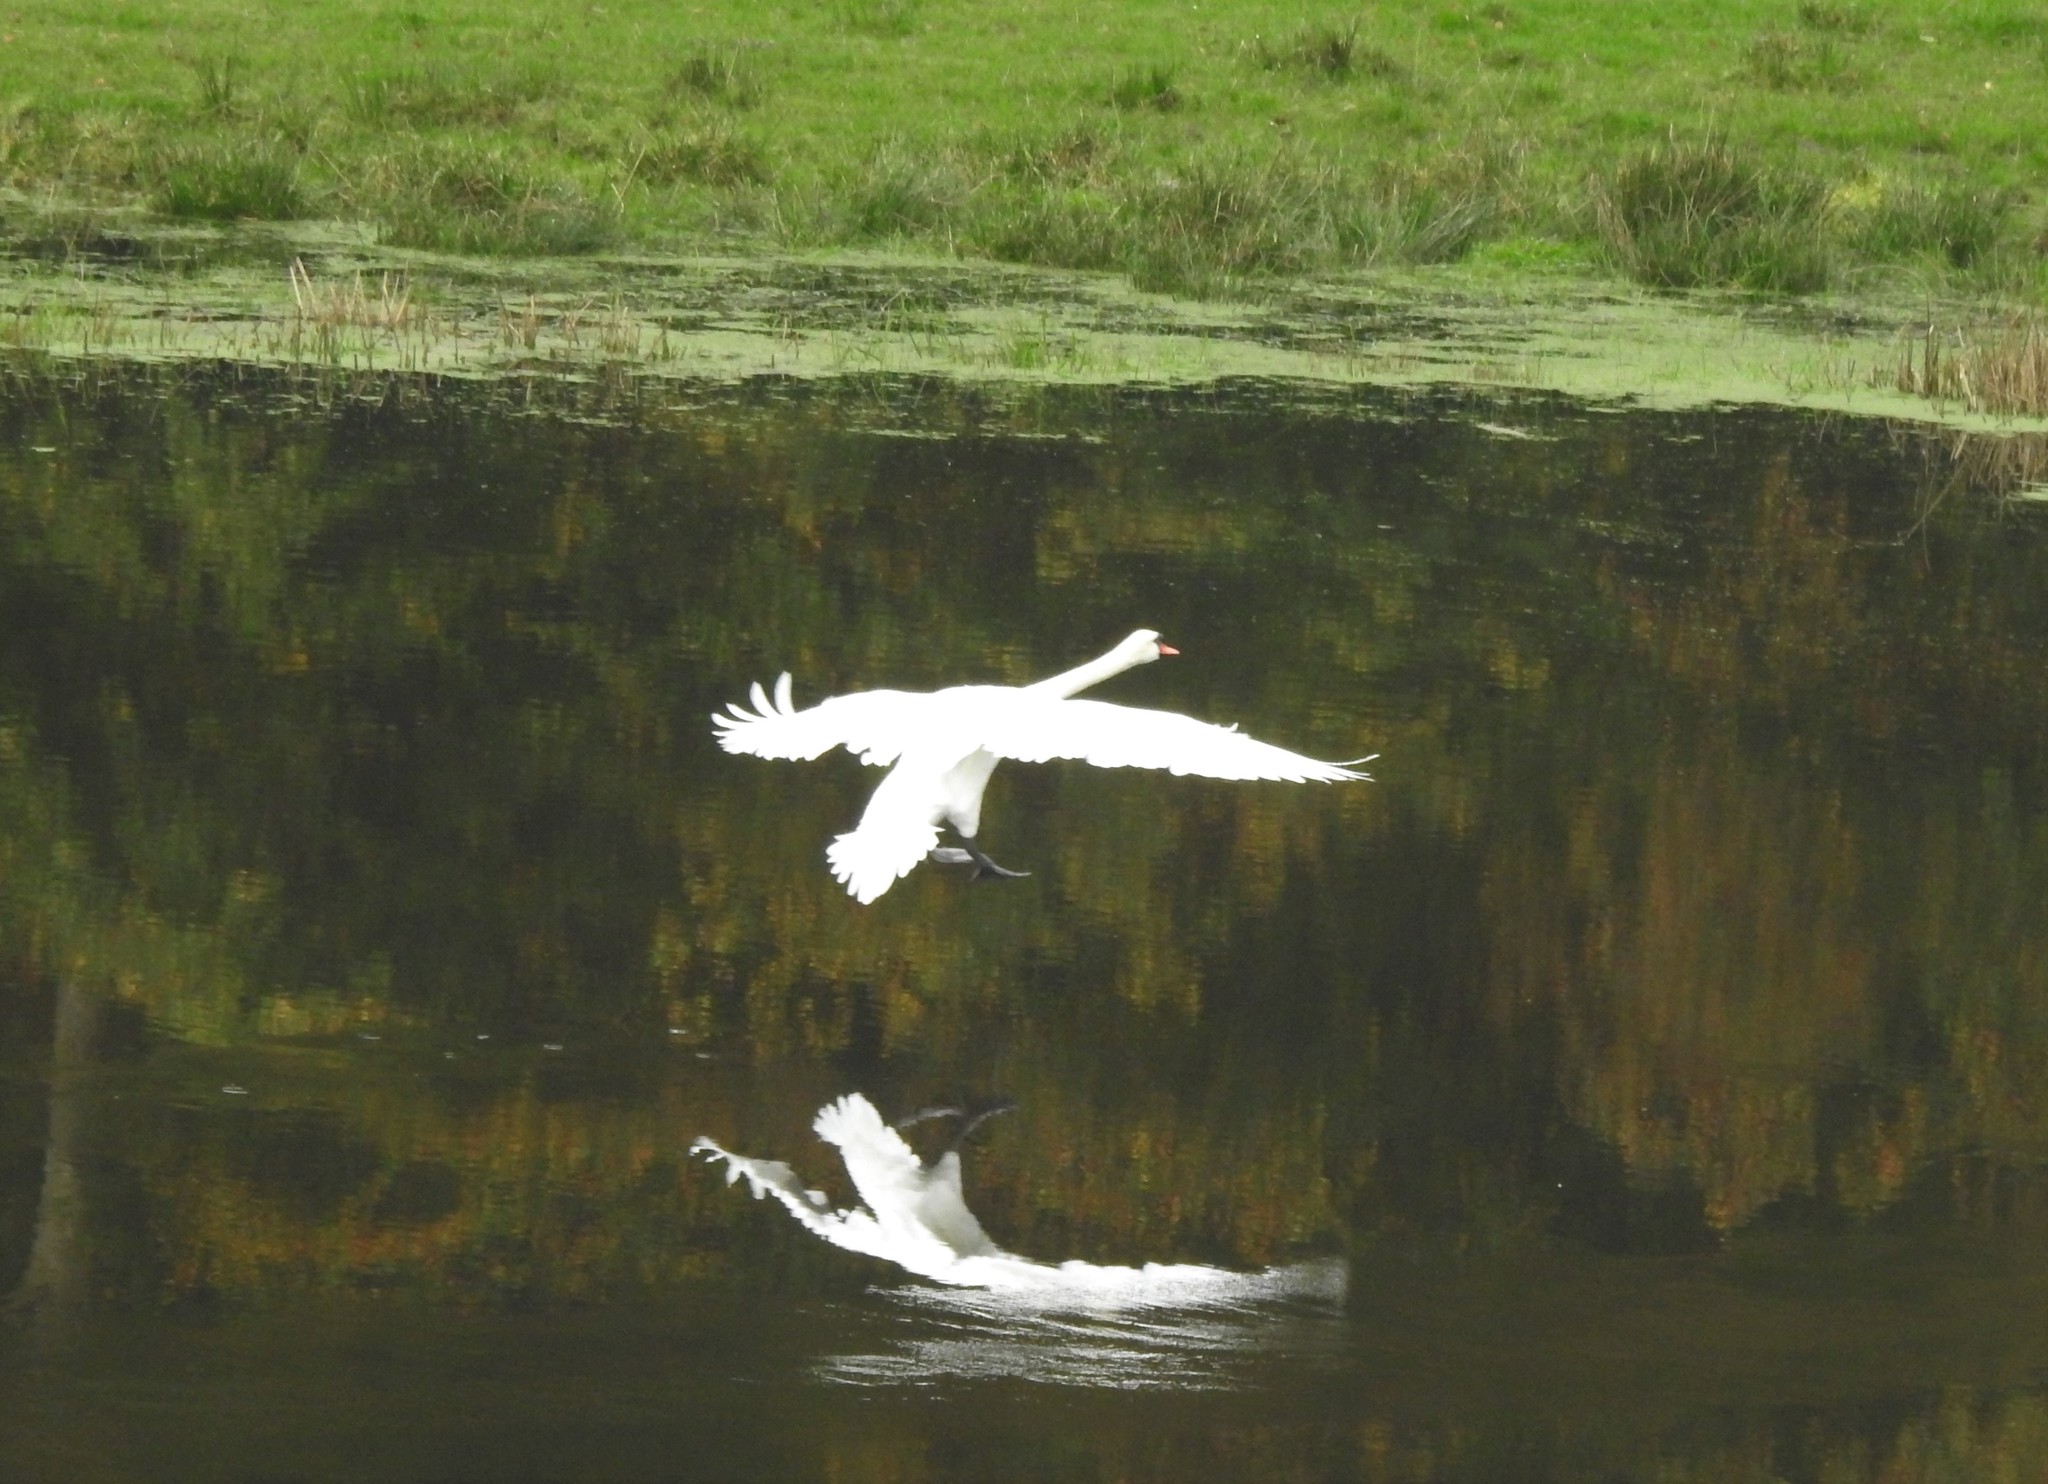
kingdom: Animalia
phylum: Chordata
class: Aves
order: Anseriformes
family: Anatidae
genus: Cygnus
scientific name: Cygnus olor
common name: Mute swan
